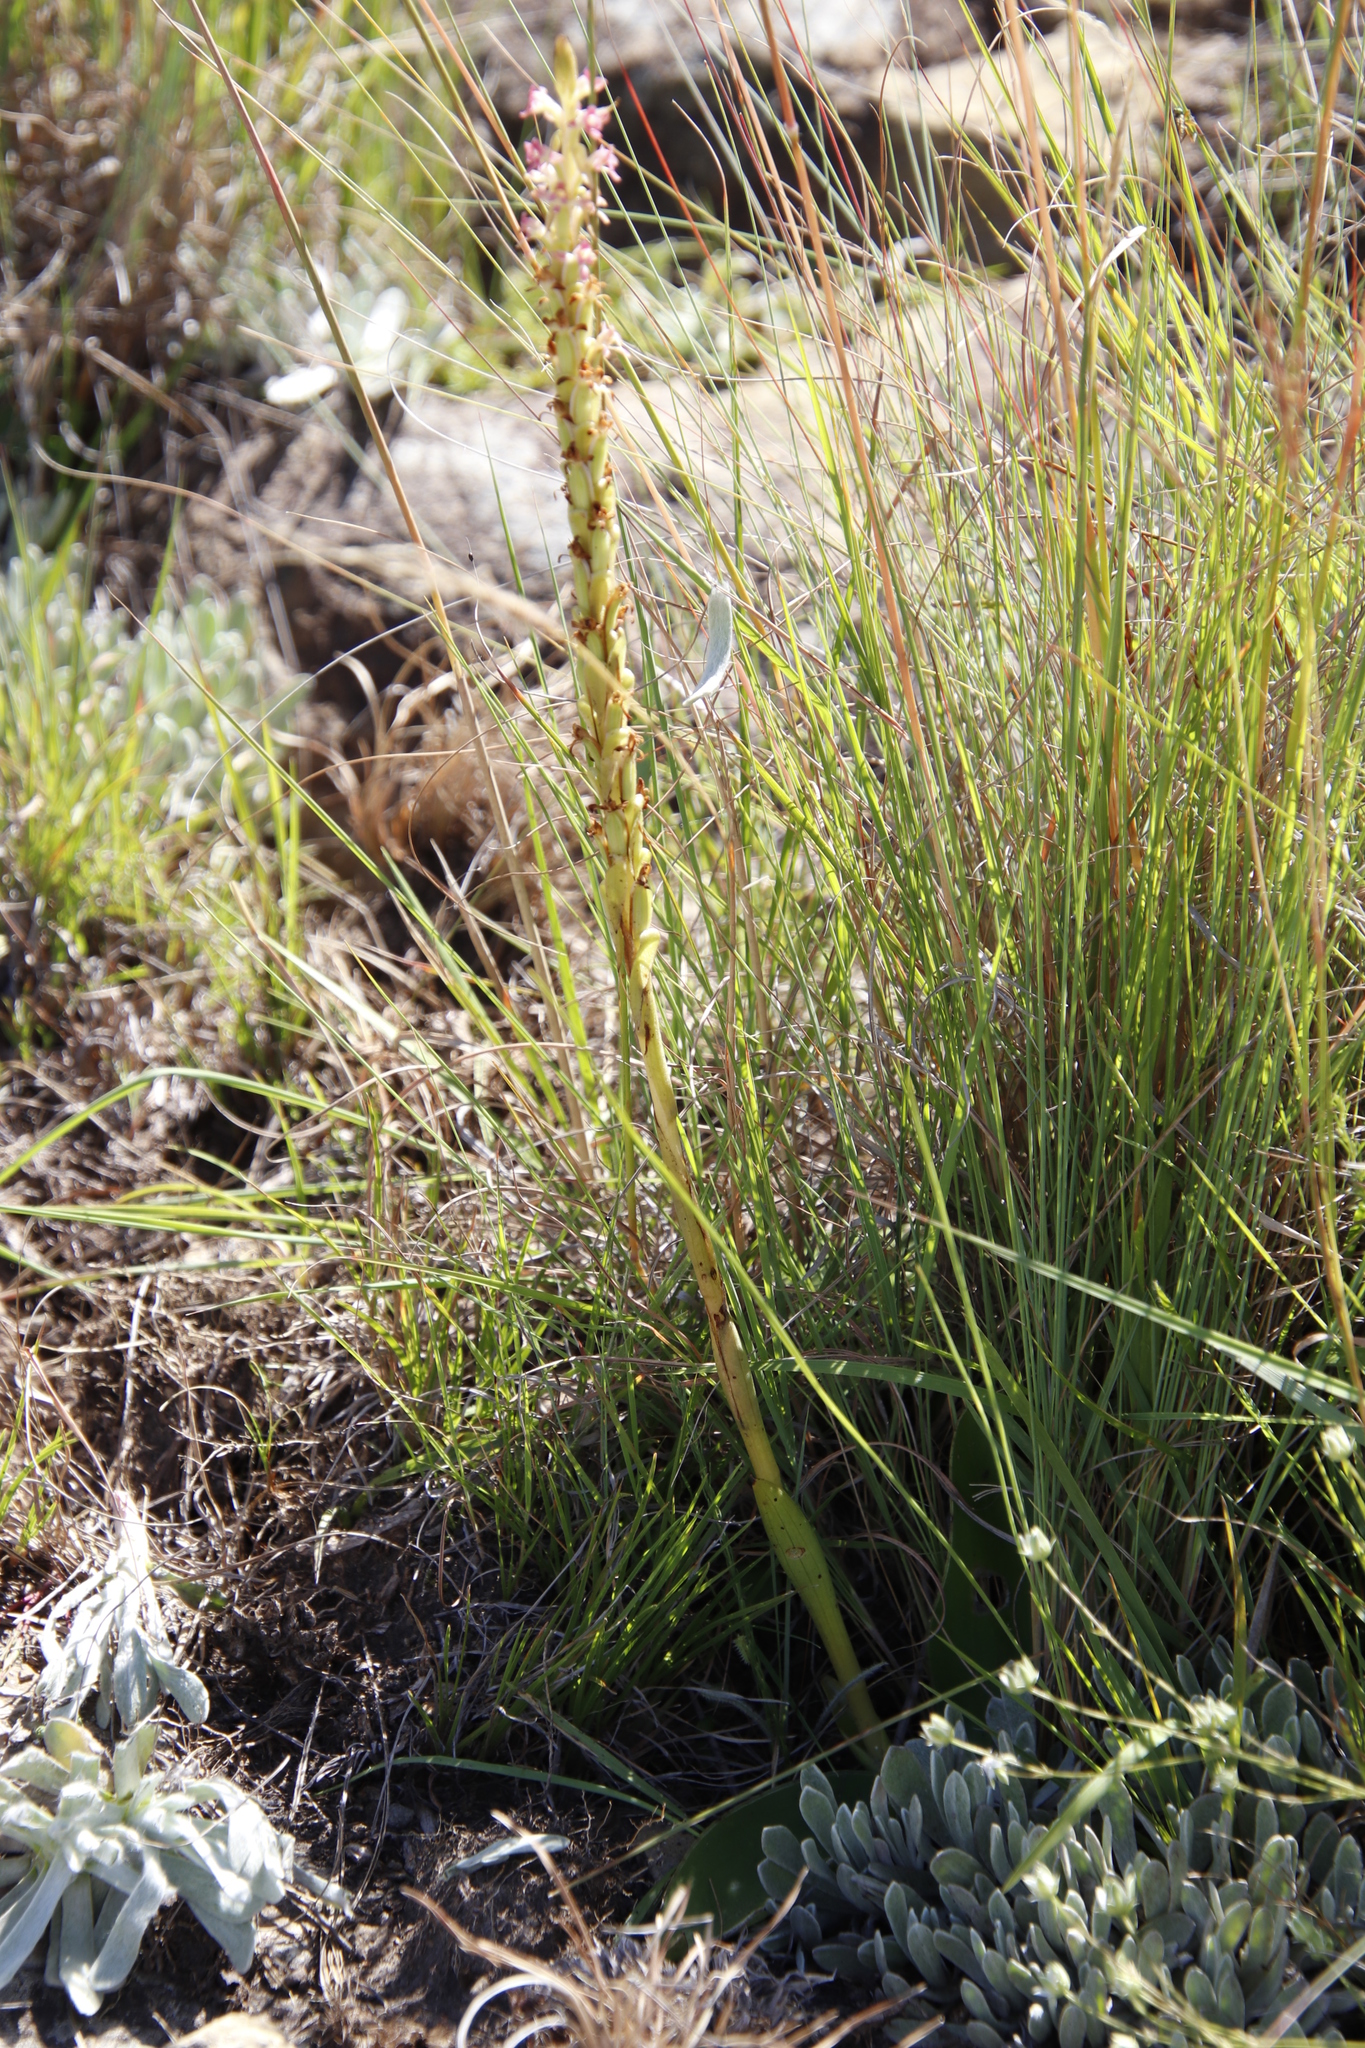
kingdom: Plantae
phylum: Tracheophyta
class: Liliopsida
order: Asparagales
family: Orchidaceae
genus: Satyrium
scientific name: Satyrium longicauda
